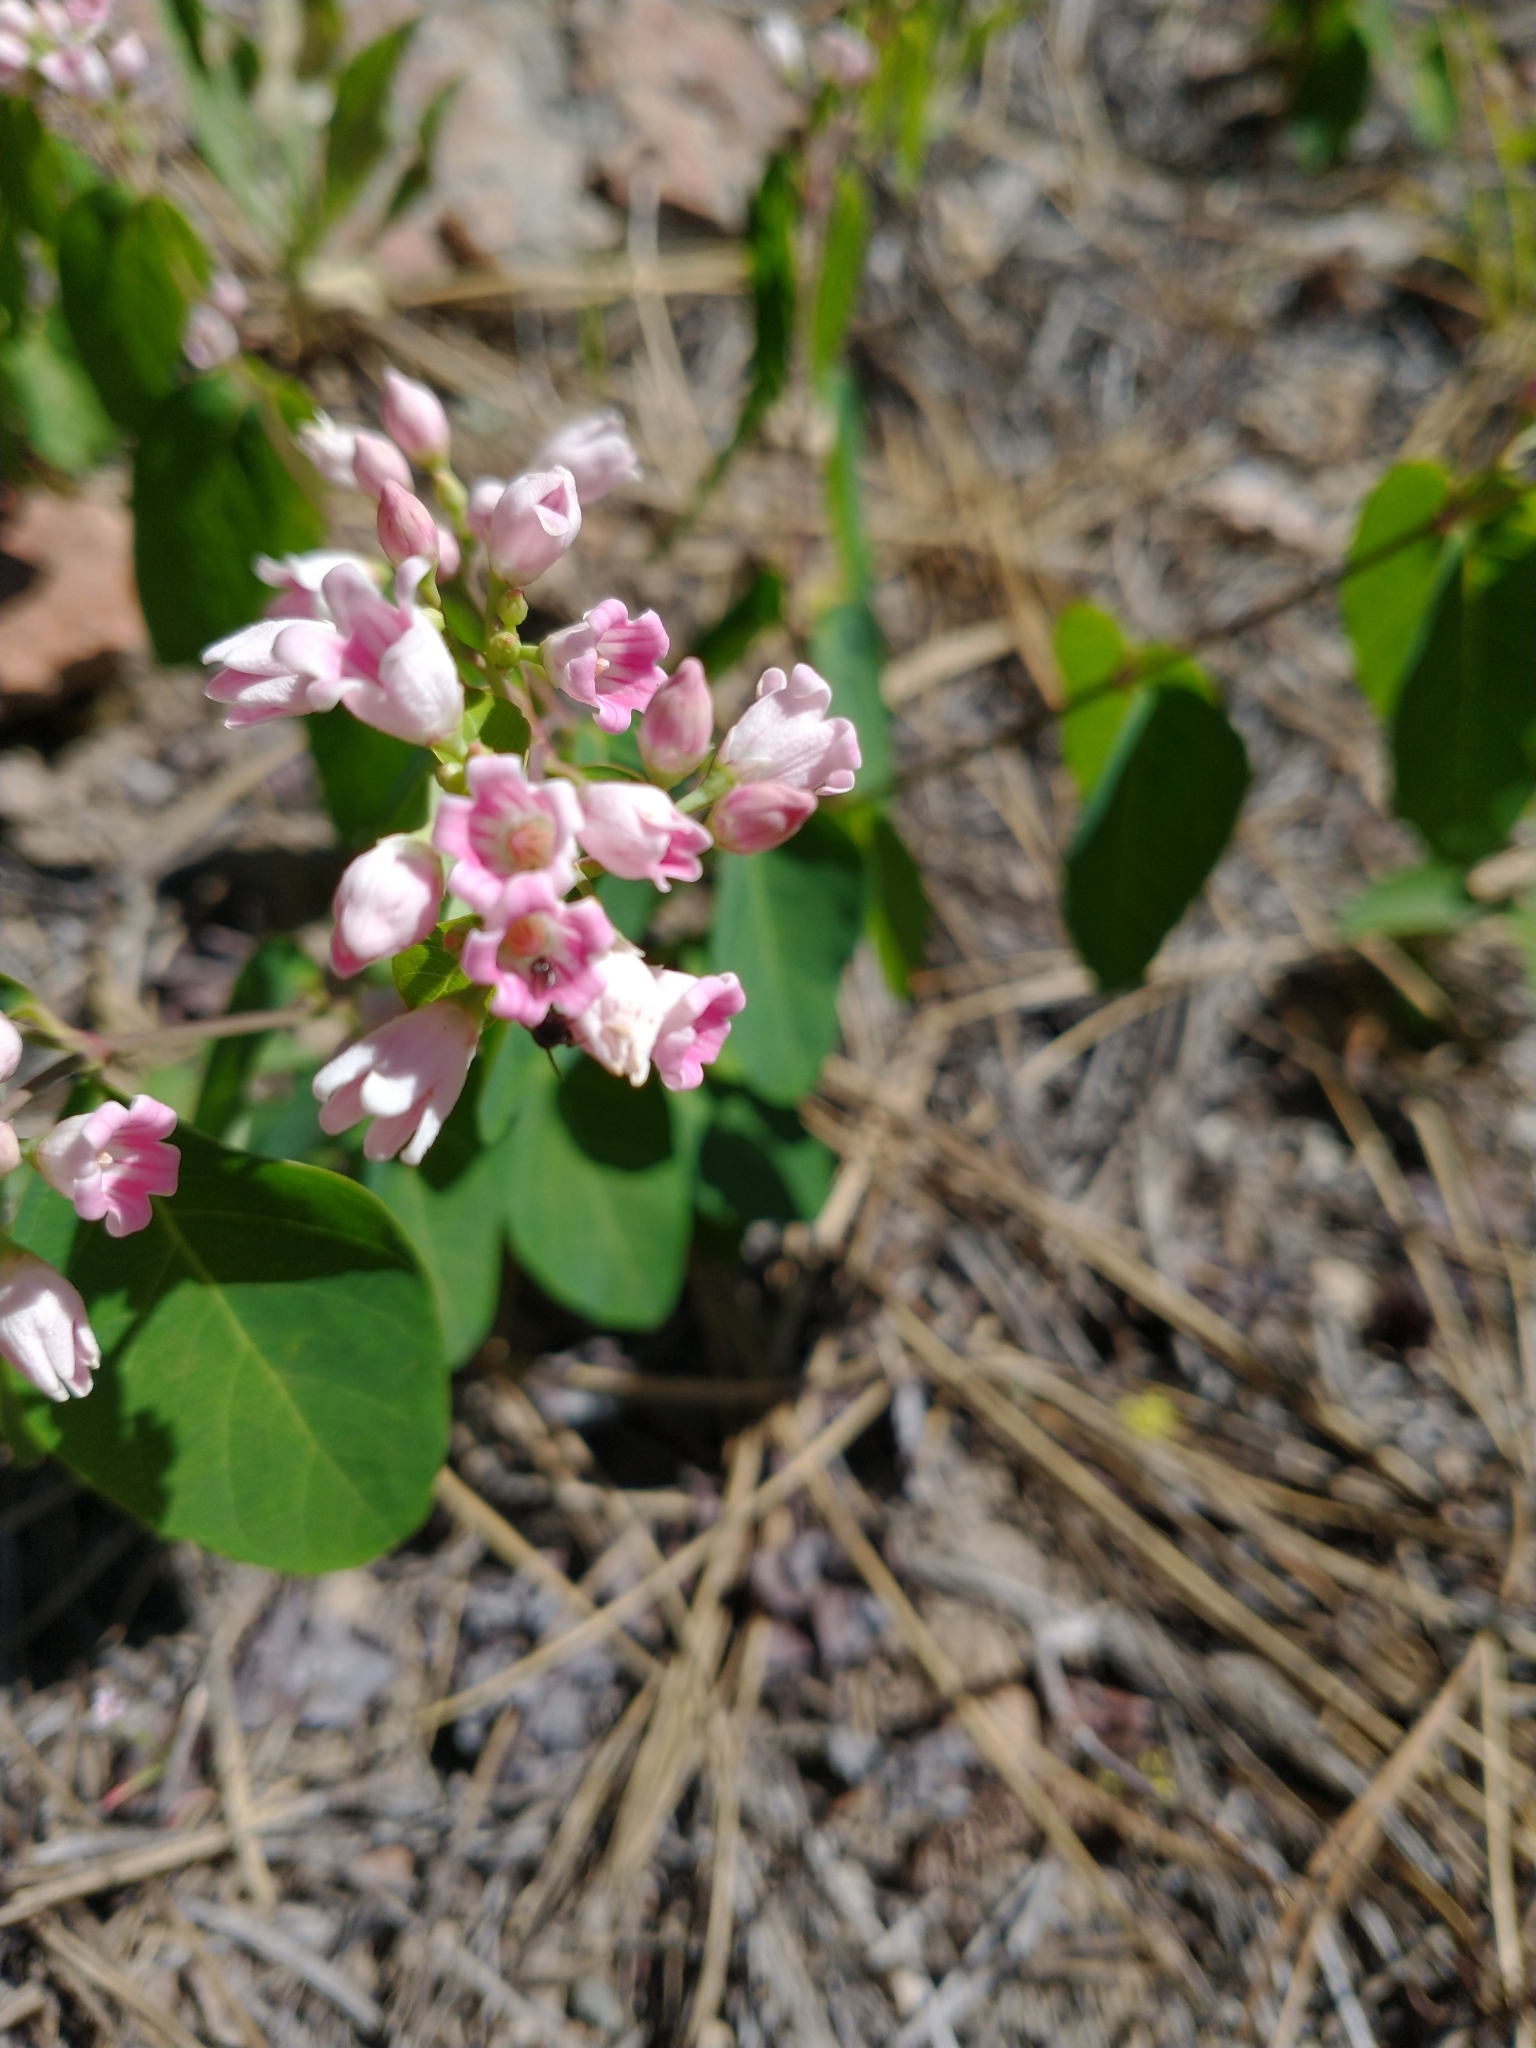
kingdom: Plantae
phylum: Tracheophyta
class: Magnoliopsida
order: Gentianales
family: Apocynaceae
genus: Apocynum
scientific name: Apocynum androsaemifolium
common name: Spreading dogbane
